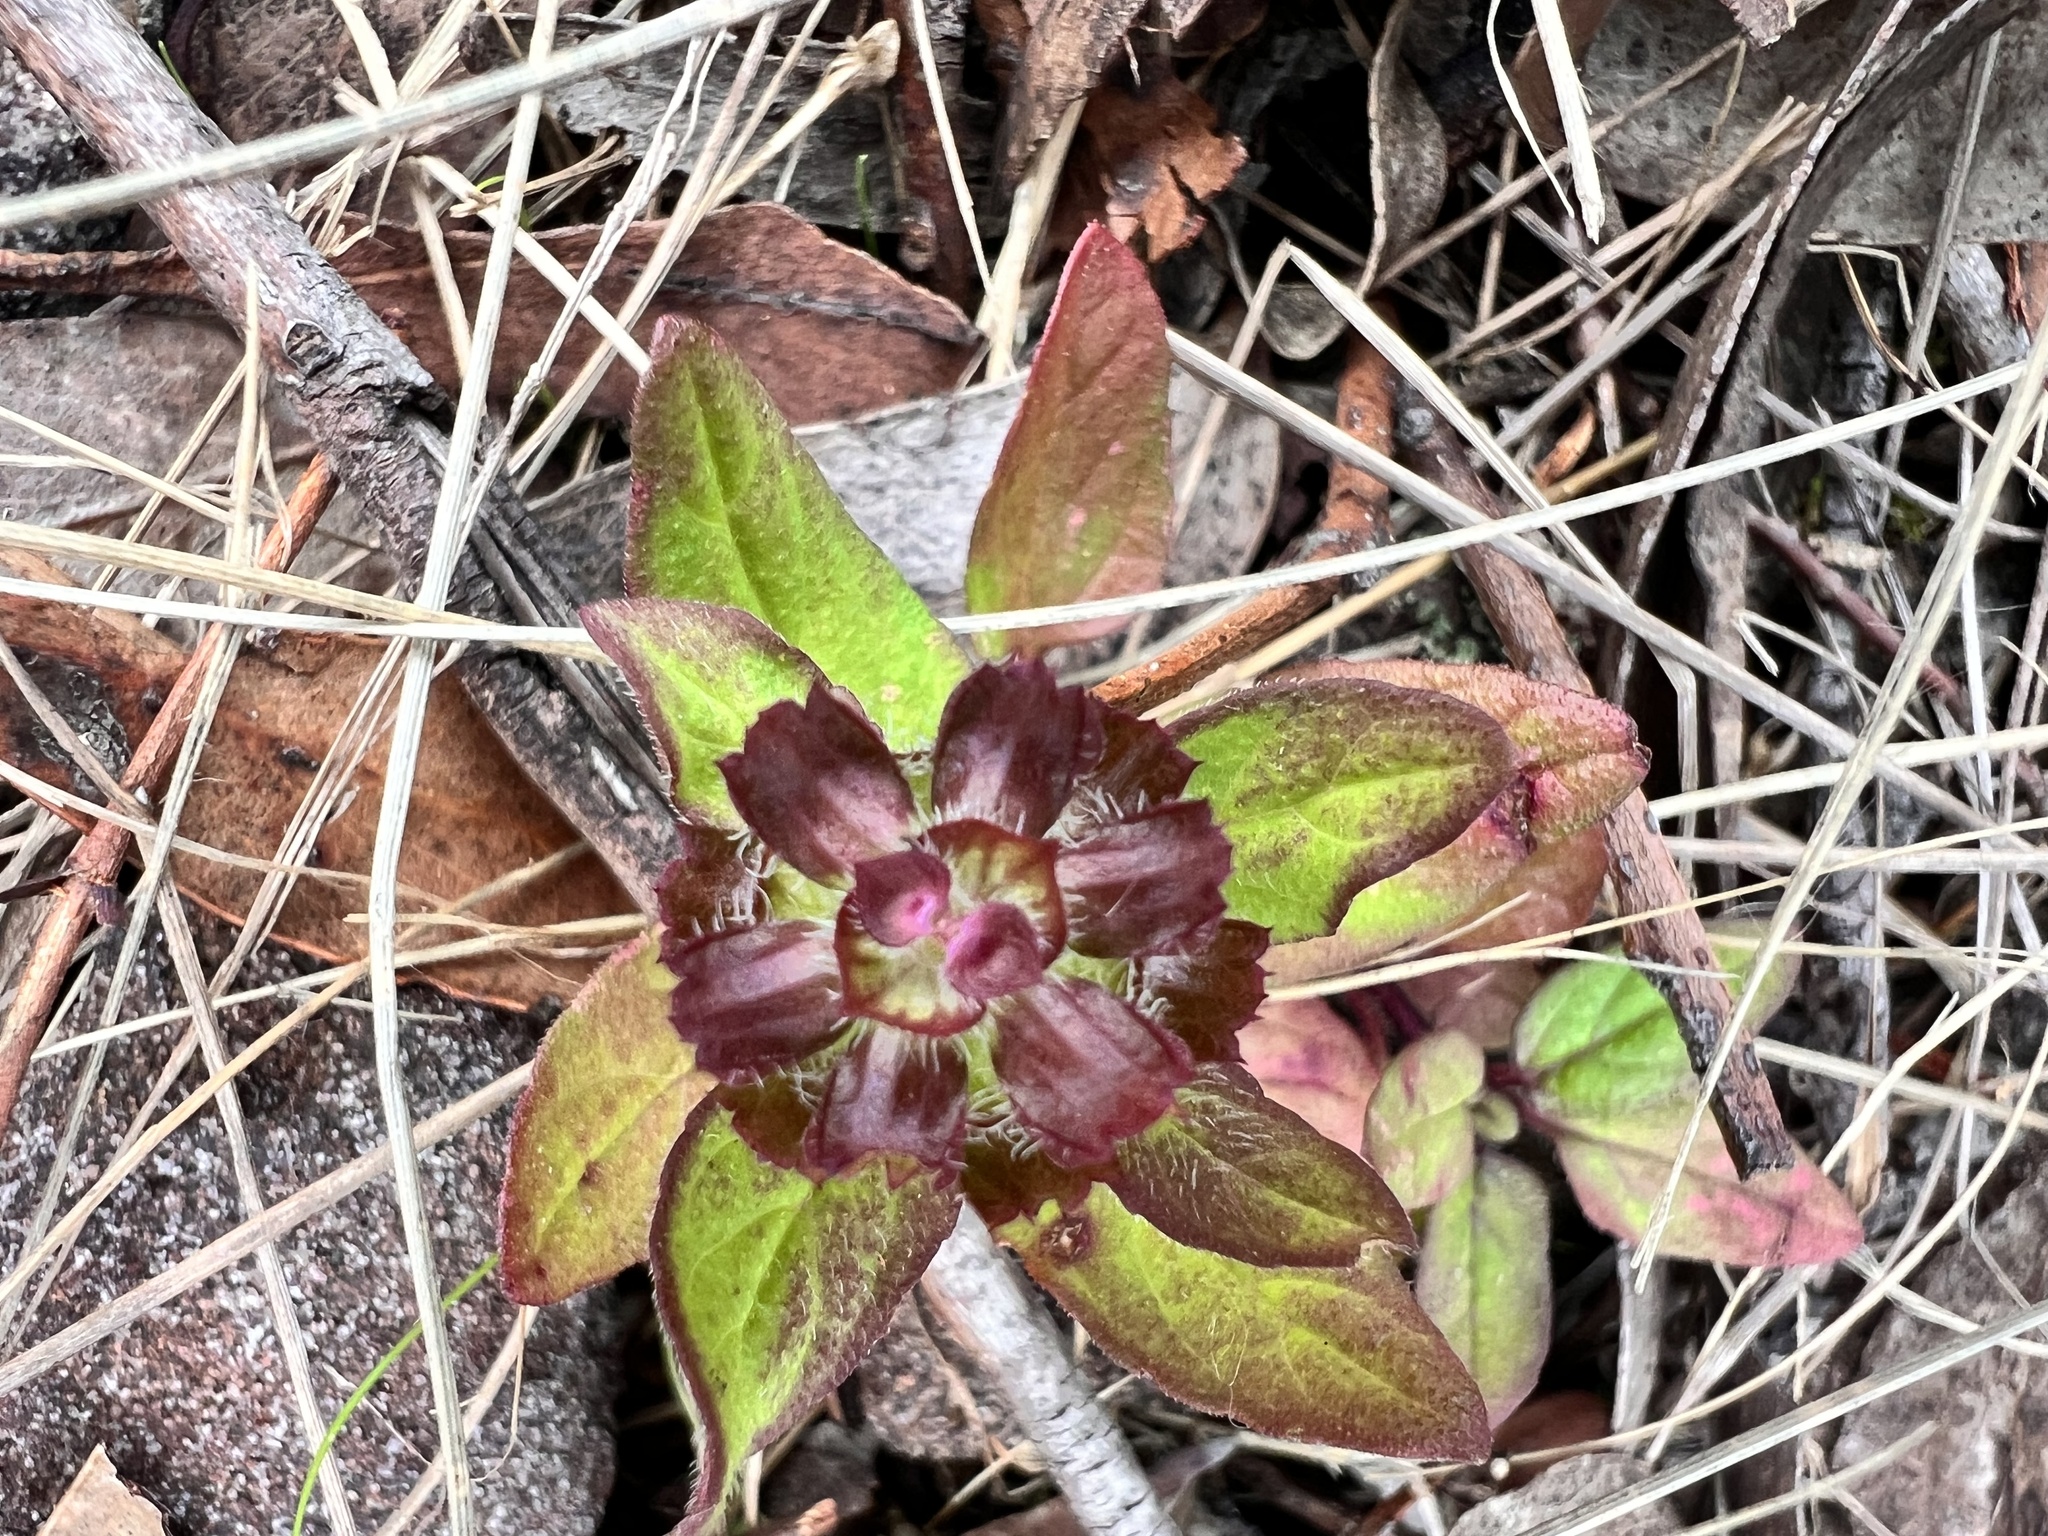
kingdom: Plantae
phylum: Tracheophyta
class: Magnoliopsida
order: Lamiales
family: Lamiaceae
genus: Prunella
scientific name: Prunella vulgaris
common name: Heal-all
